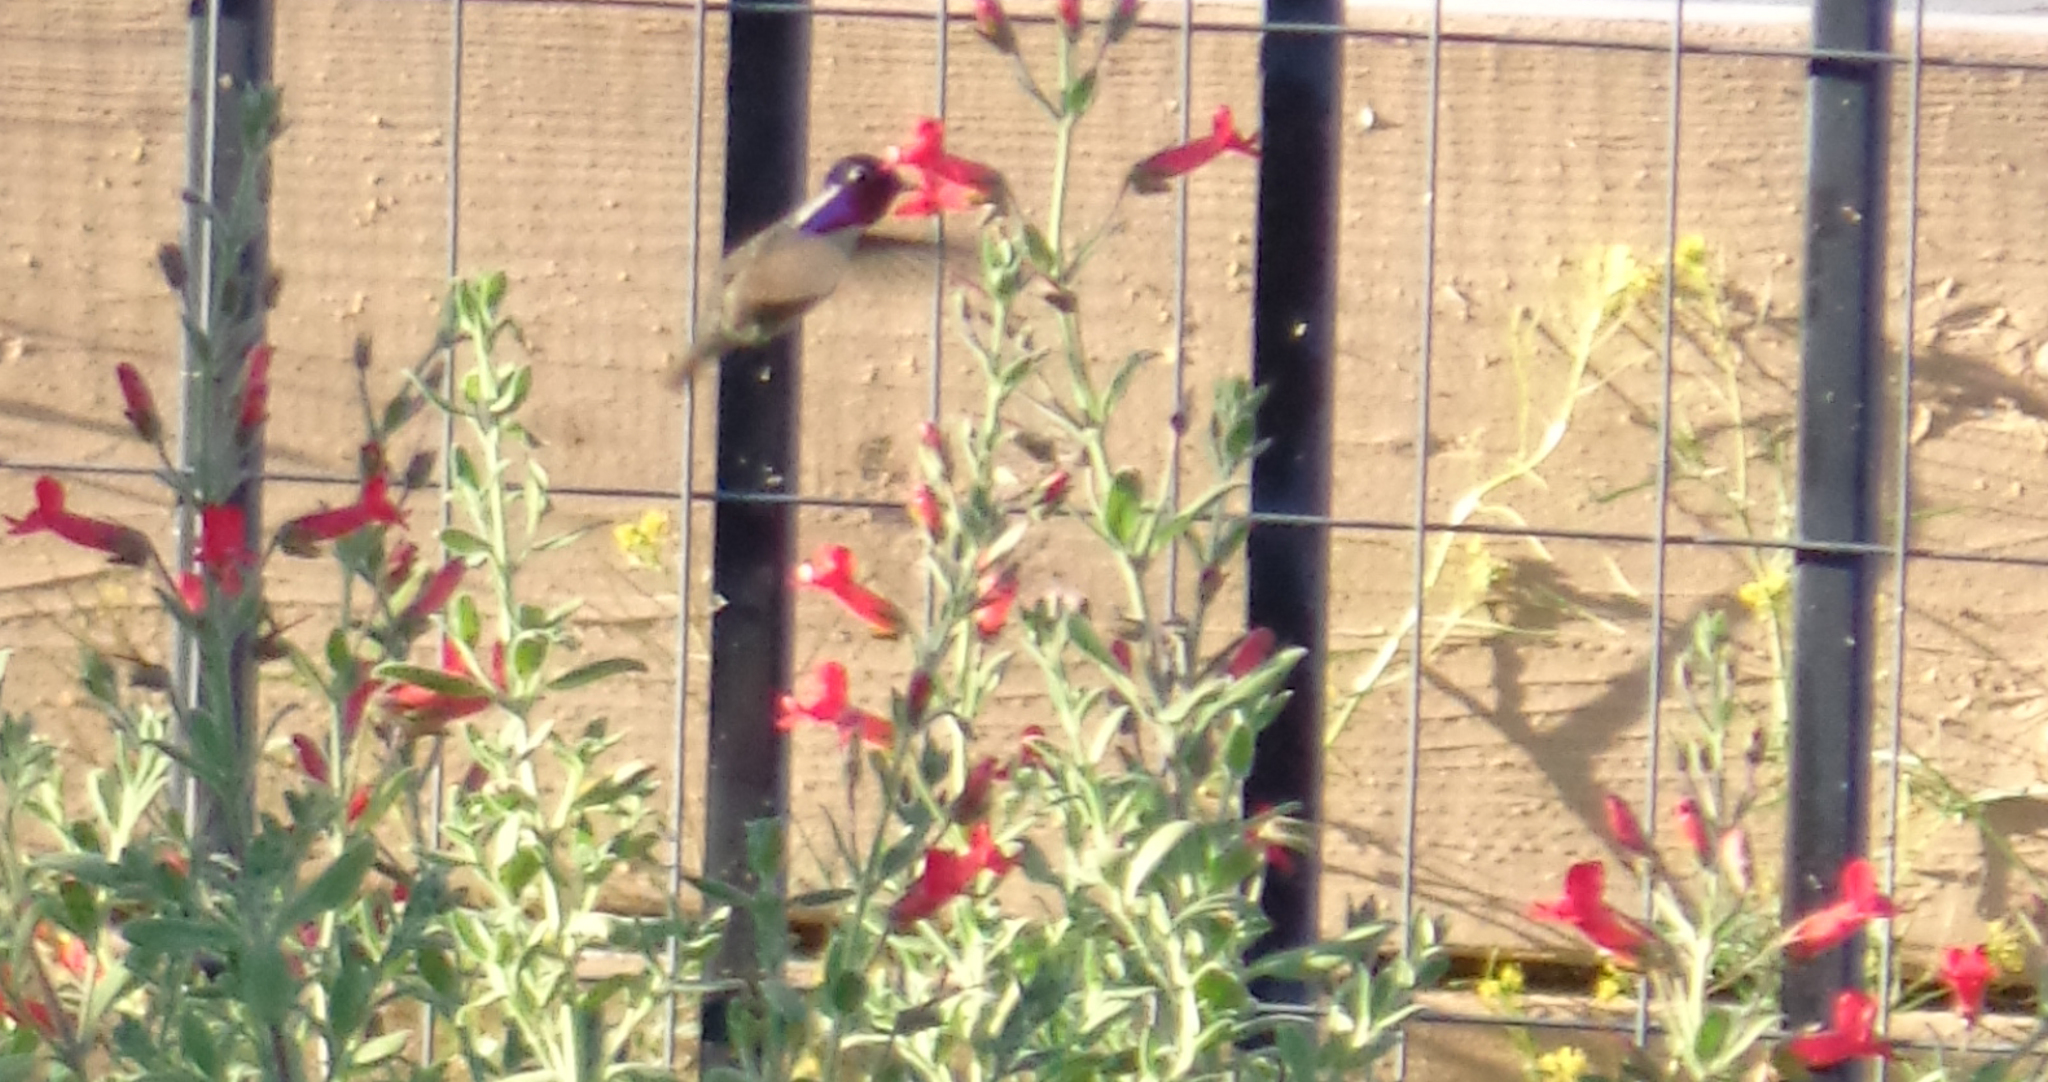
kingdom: Animalia
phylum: Chordata
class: Aves
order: Apodiformes
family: Trochilidae
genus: Calypte
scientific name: Calypte costae
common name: Costa's hummingbird
